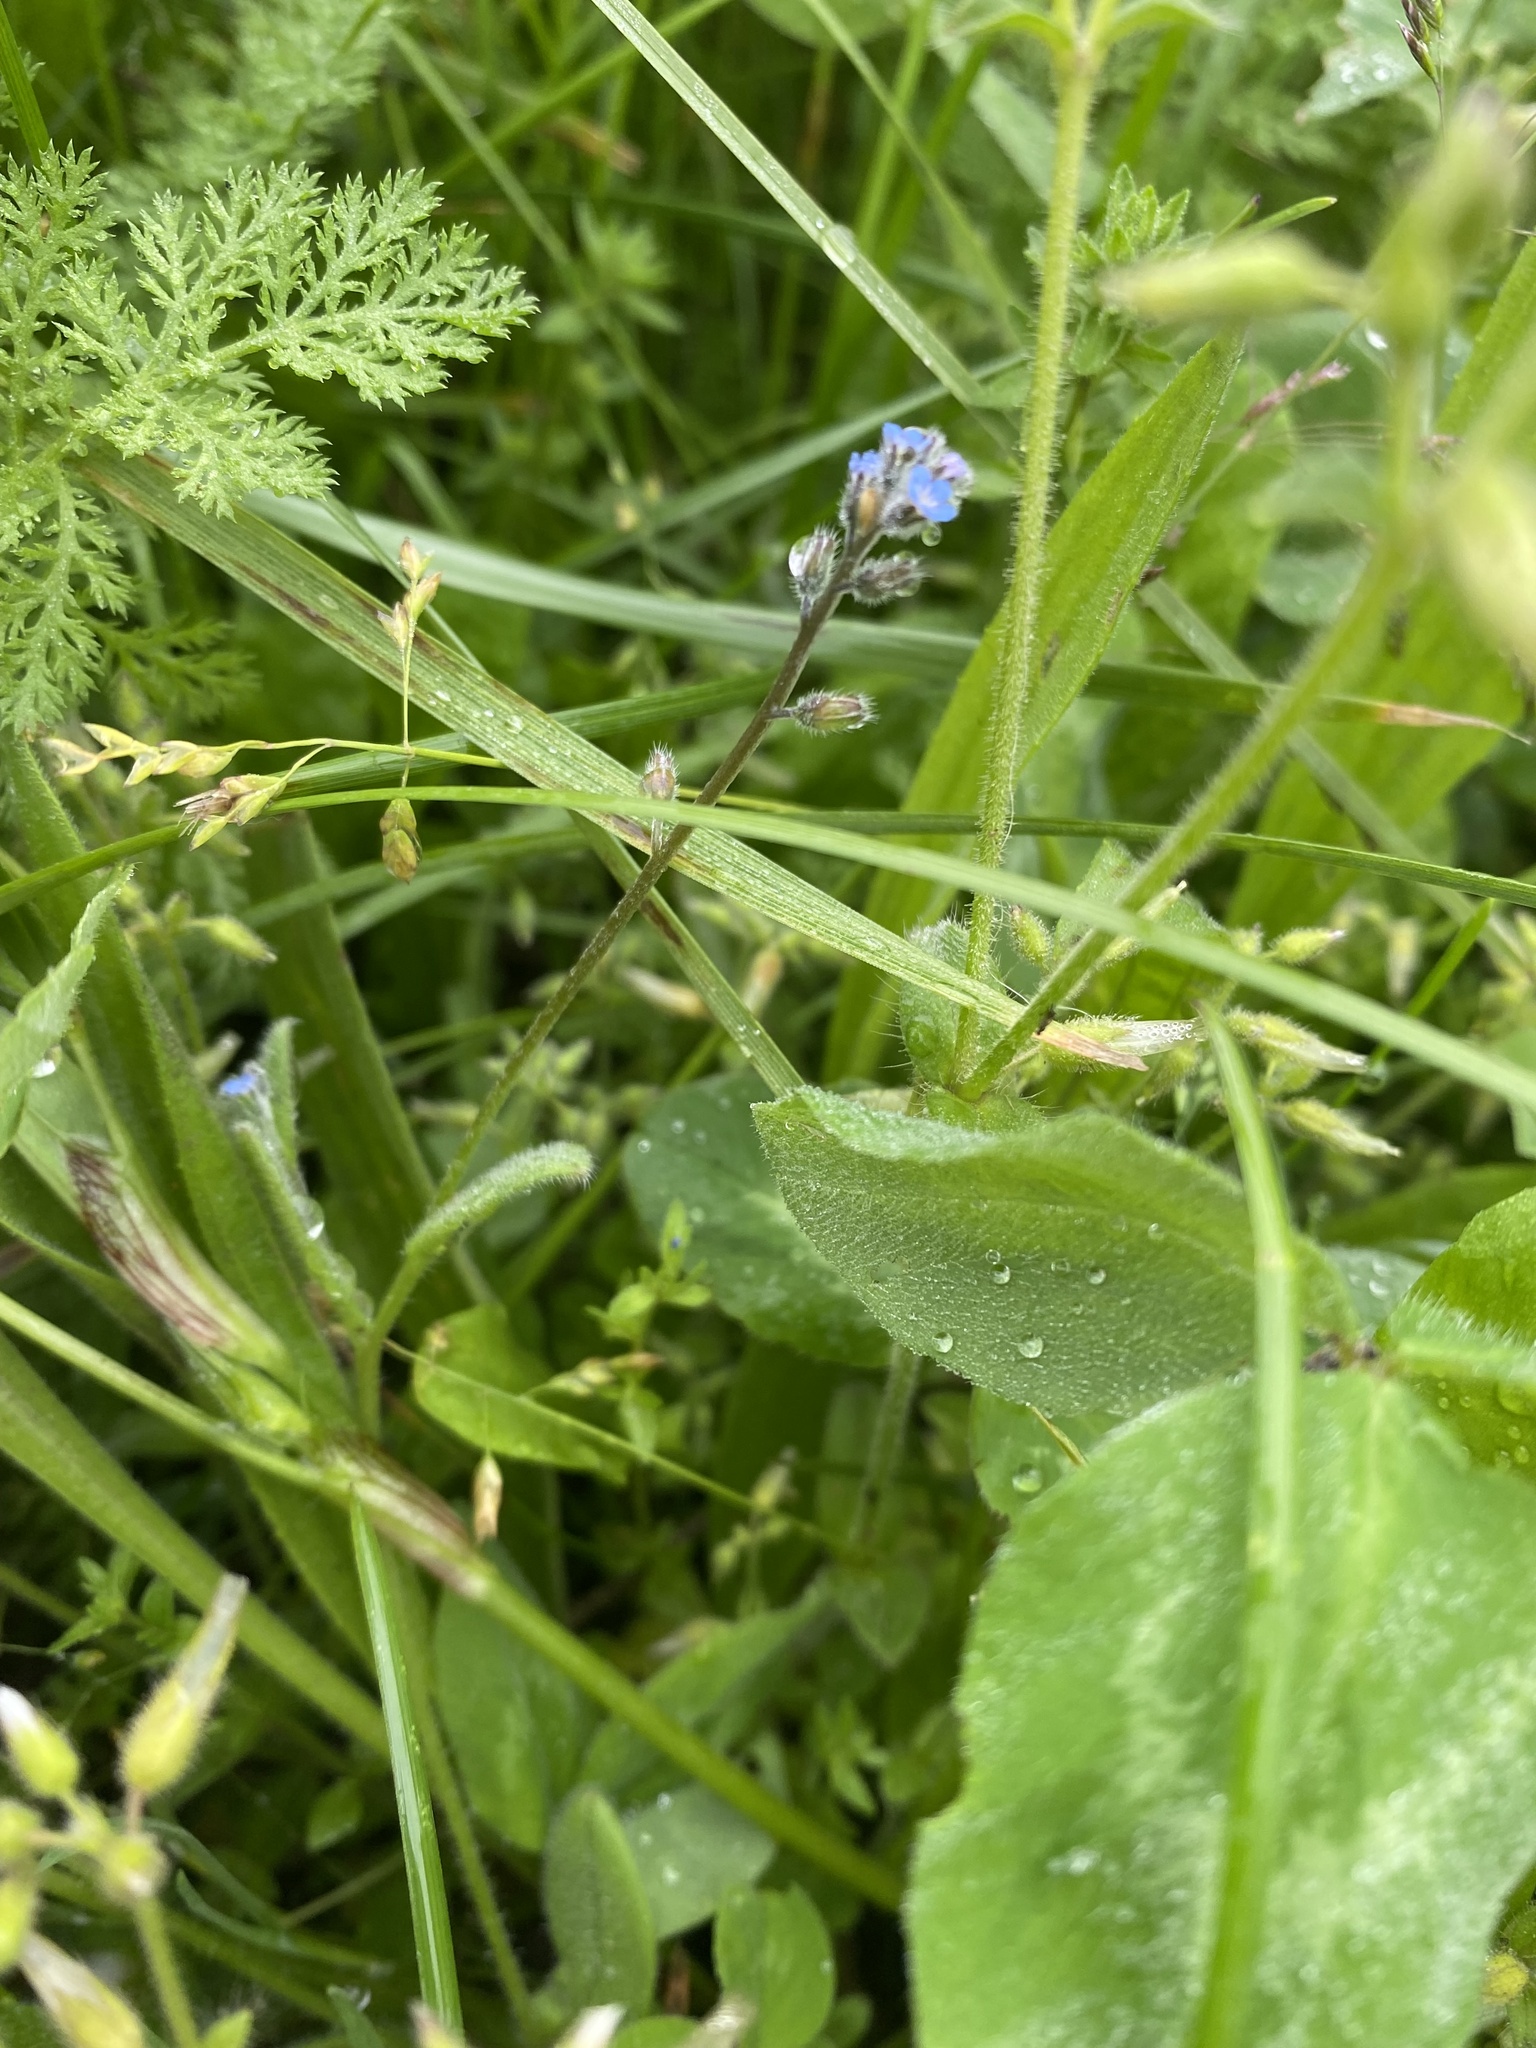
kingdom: Plantae
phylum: Tracheophyta
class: Magnoliopsida
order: Boraginales
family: Boraginaceae
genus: Myosotis
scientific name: Myosotis stricta
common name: Strict forget-me-not
